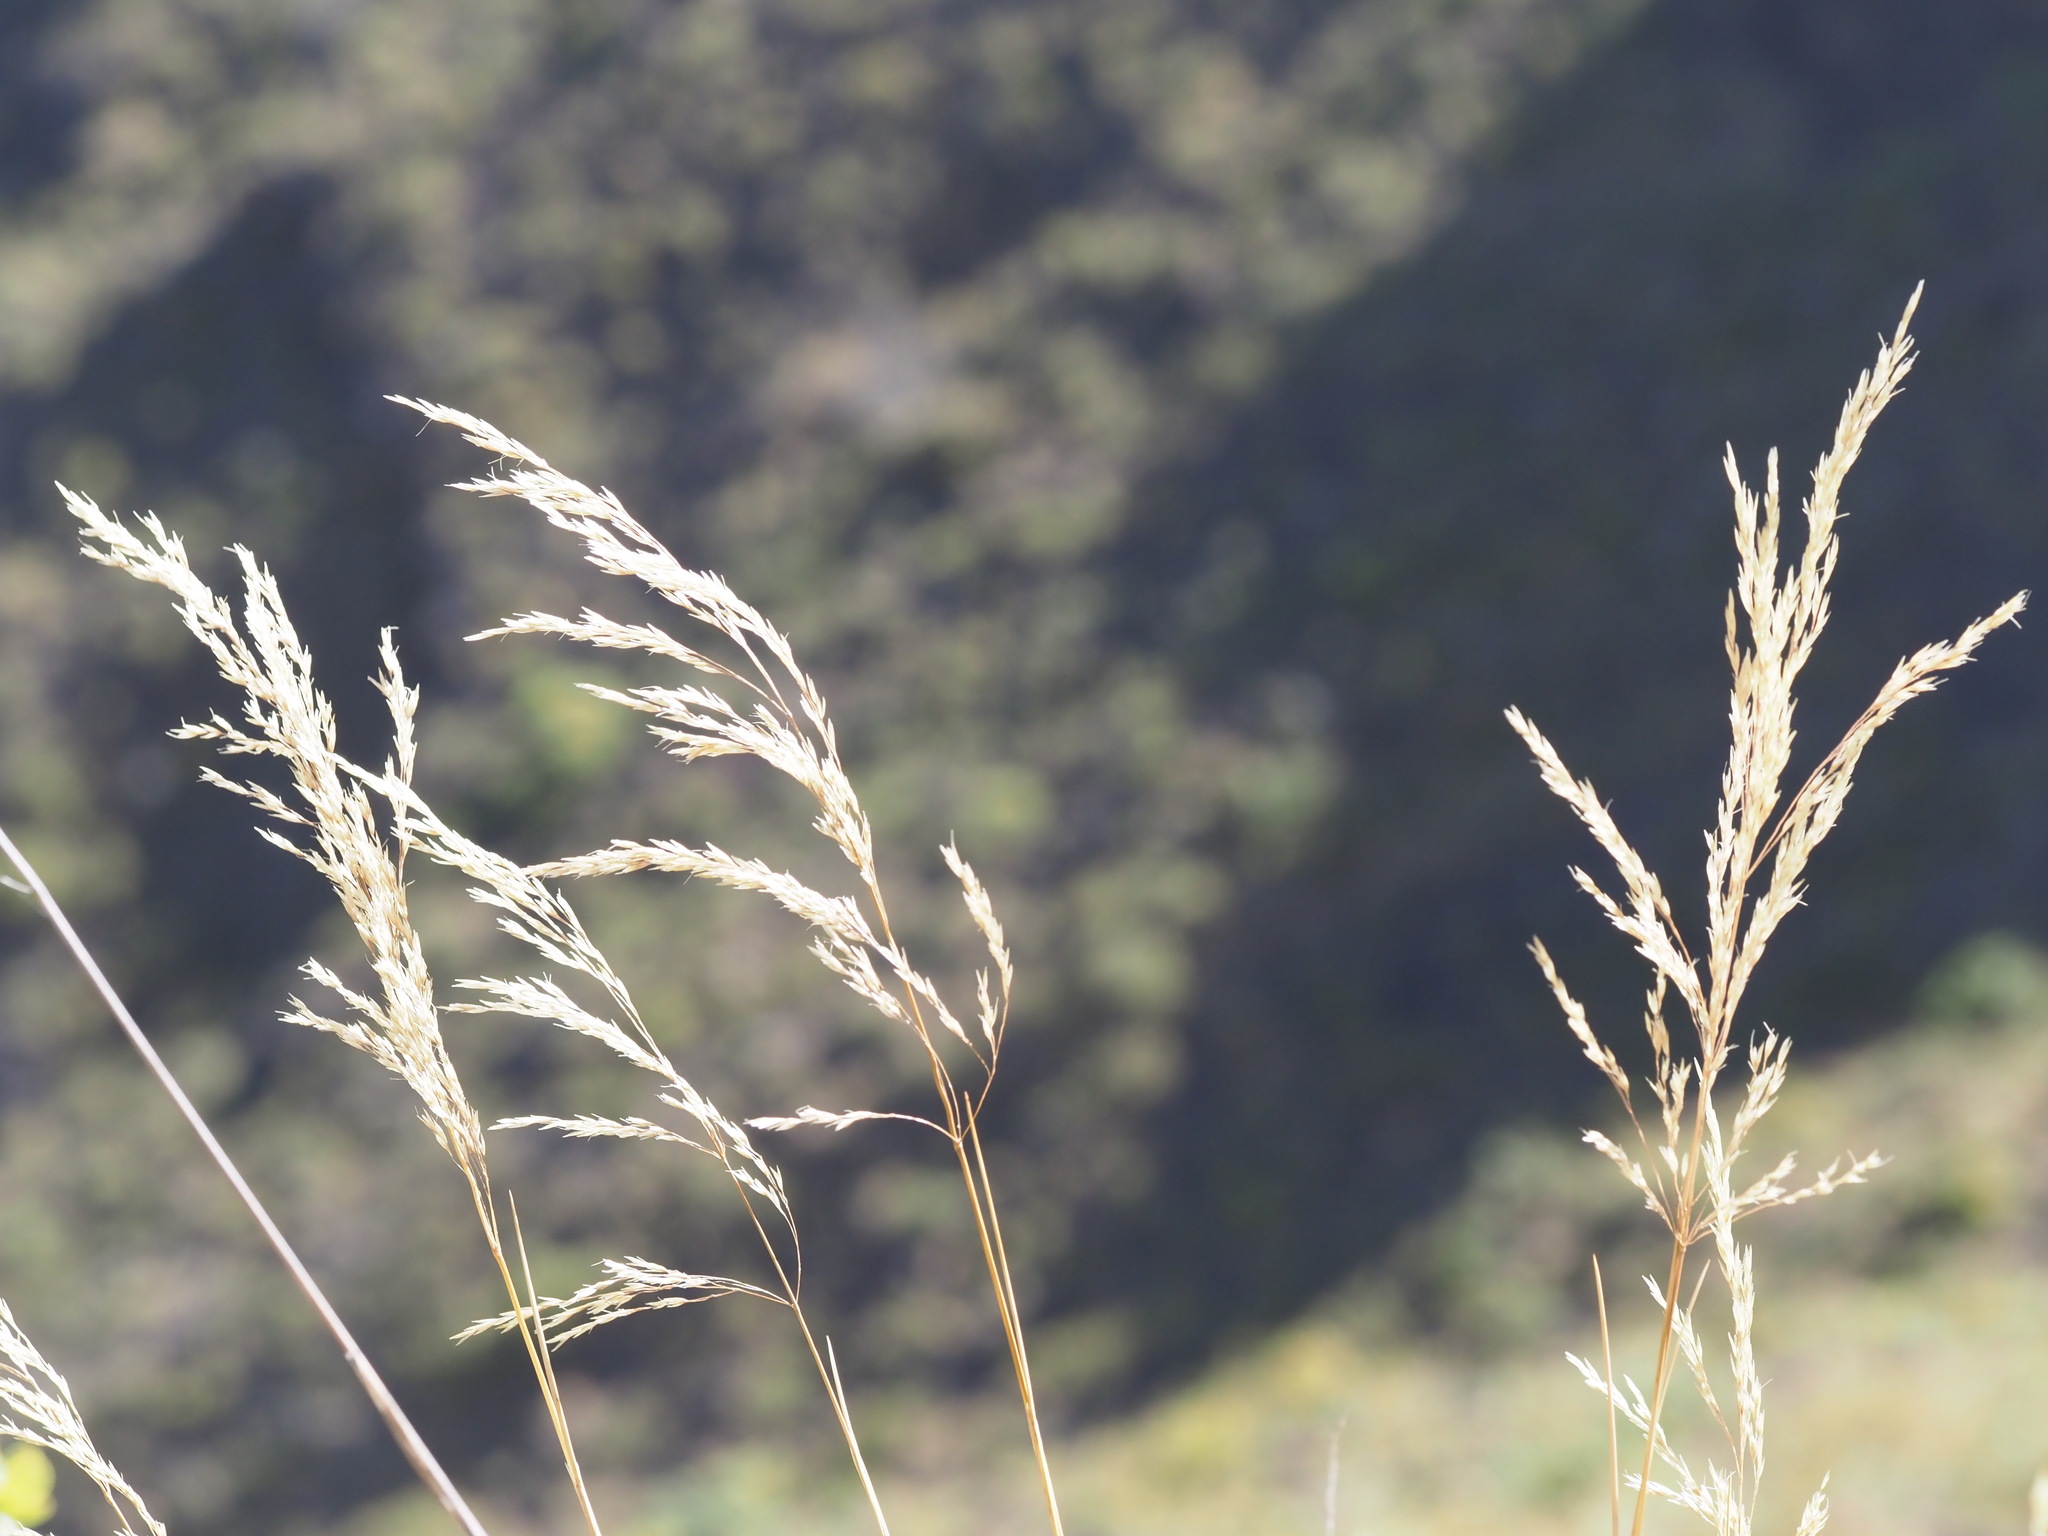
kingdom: Plantae
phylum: Tracheophyta
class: Liliopsida
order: Poales
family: Poaceae
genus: Deschampsia
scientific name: Deschampsia nubigena
